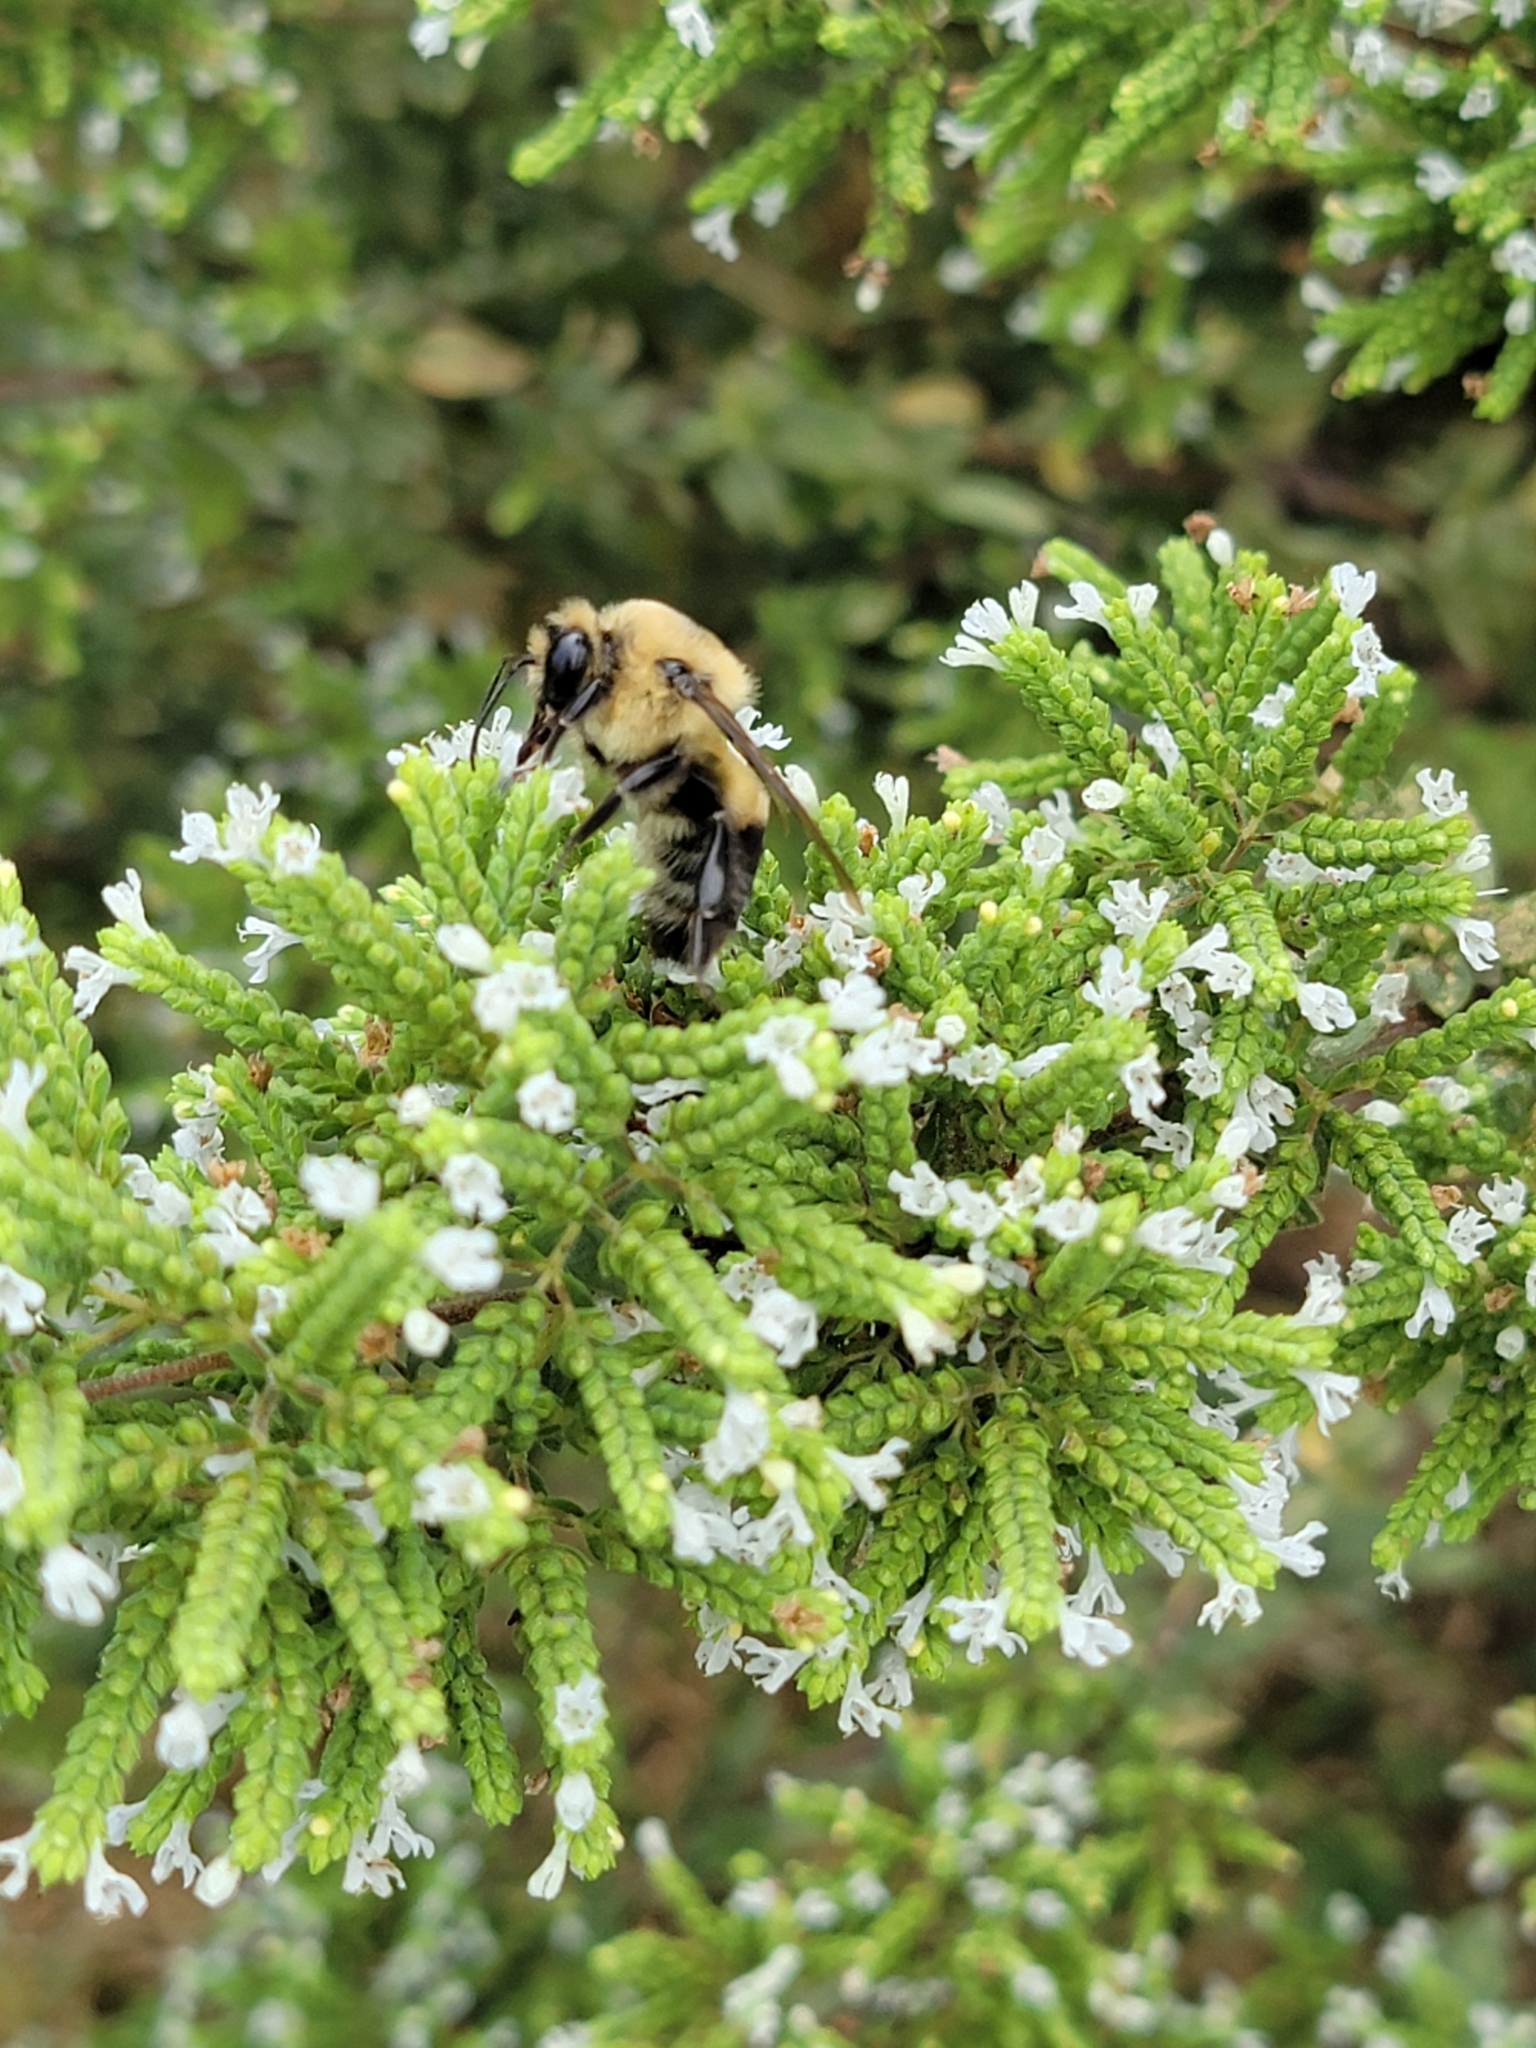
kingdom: Animalia
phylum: Arthropoda
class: Insecta
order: Hymenoptera
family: Apidae
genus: Bombus
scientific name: Bombus griseocollis
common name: Brown-belted bumble bee
